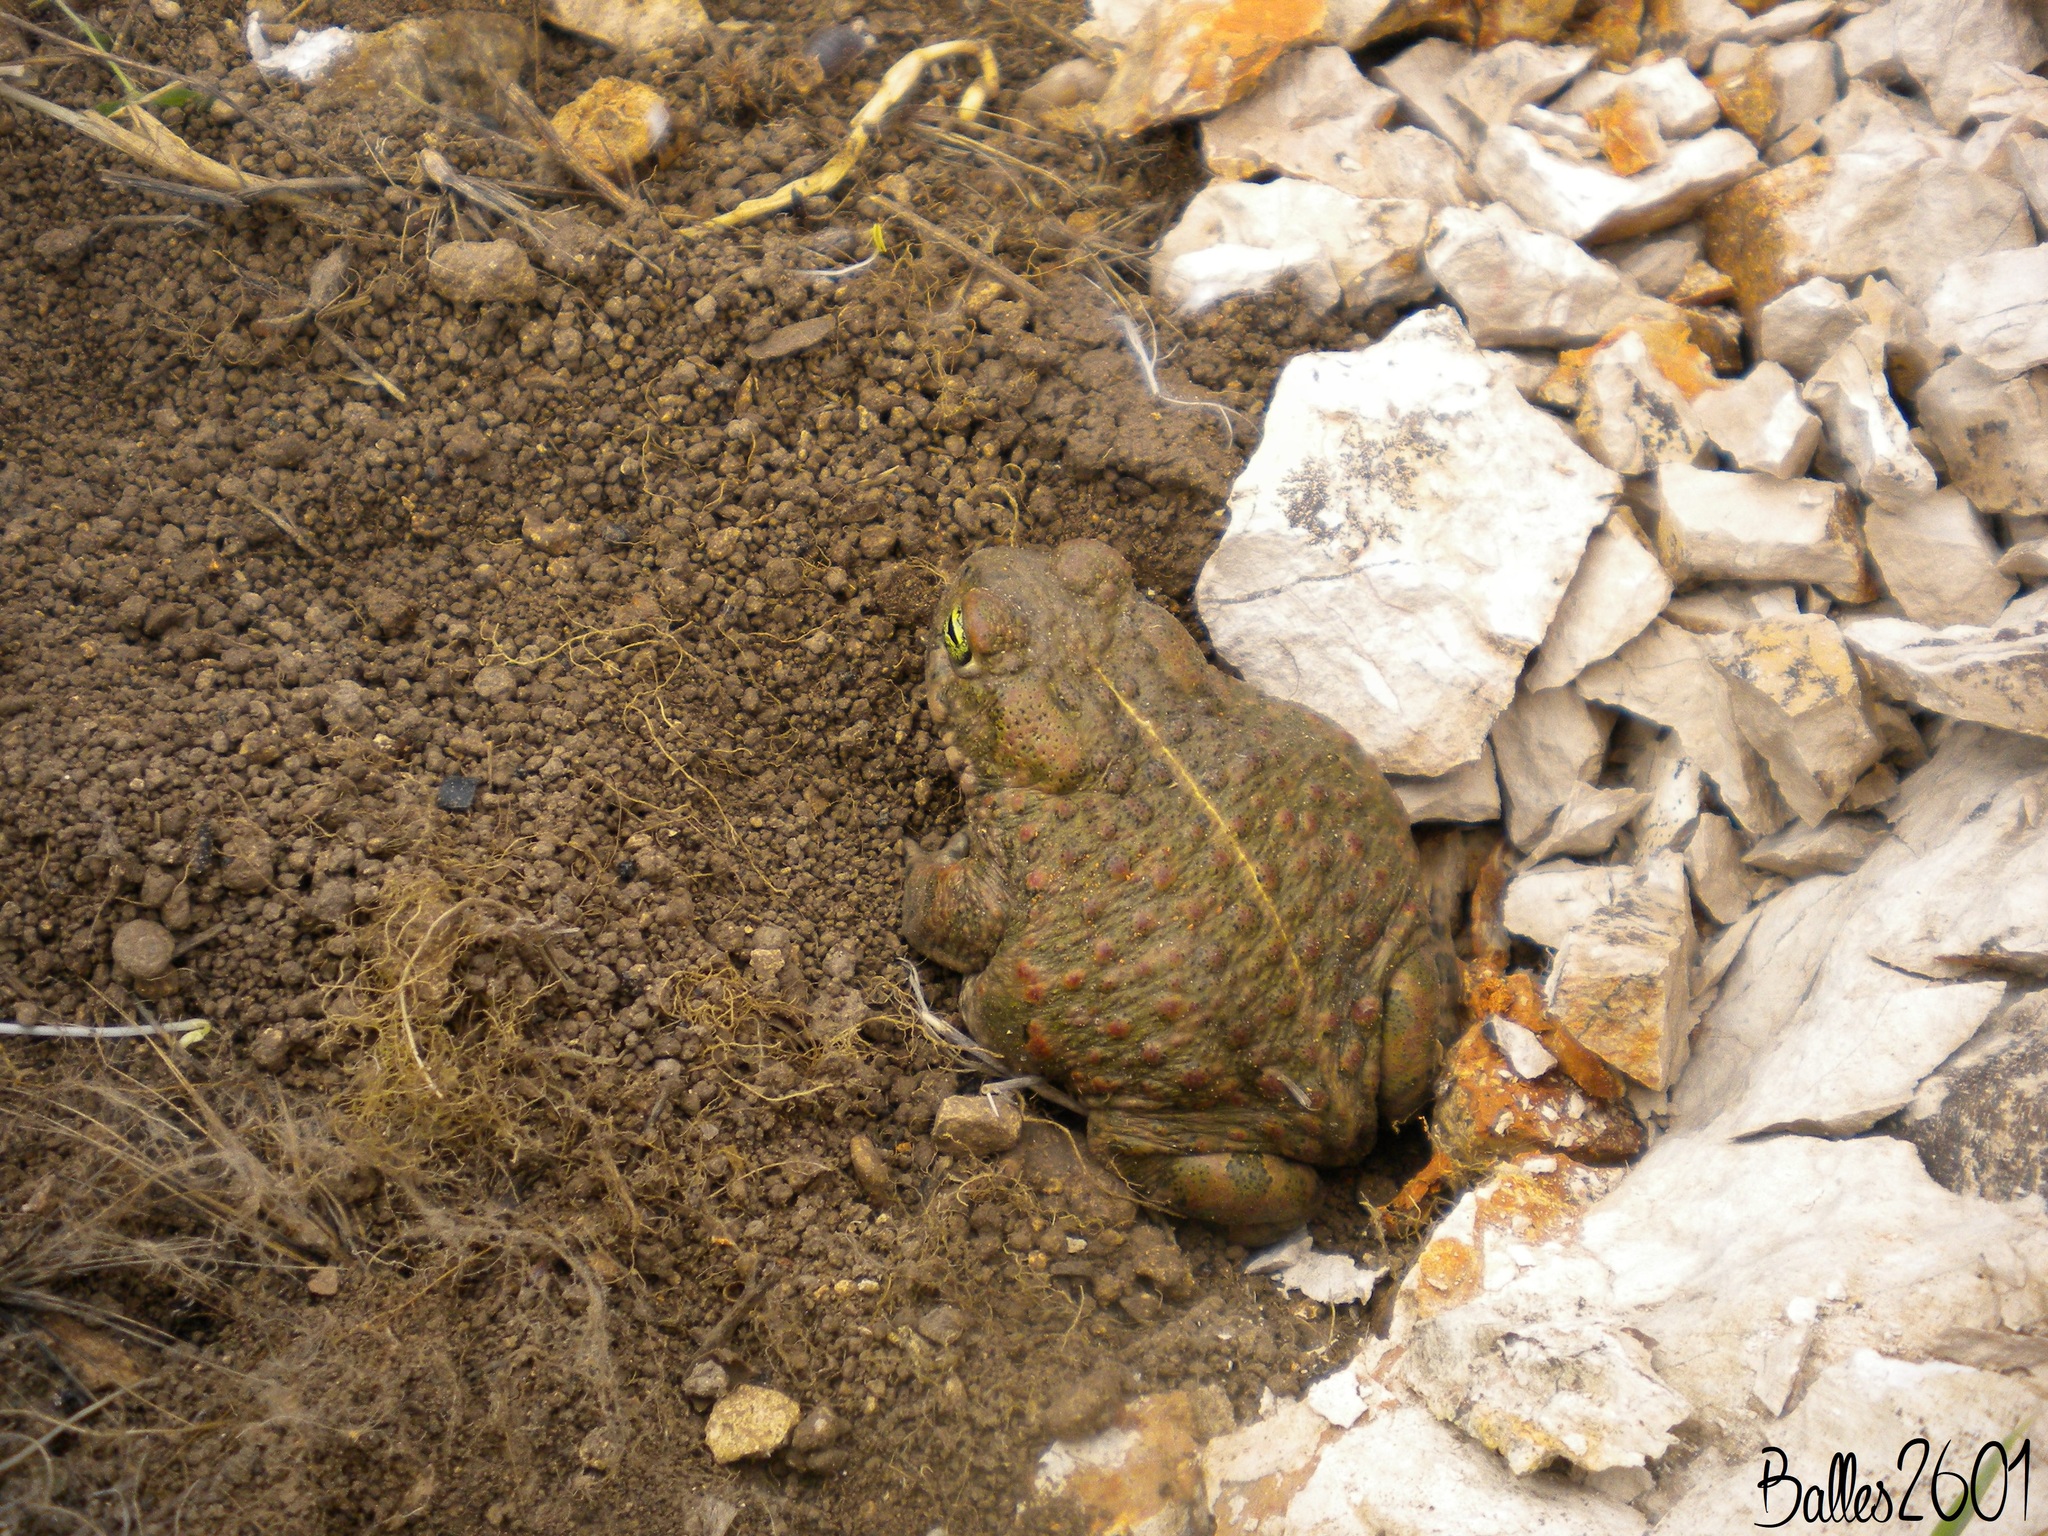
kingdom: Animalia
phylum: Chordata
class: Amphibia
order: Anura
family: Bufonidae
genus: Epidalea
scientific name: Epidalea calamita
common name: Natterjack toad
